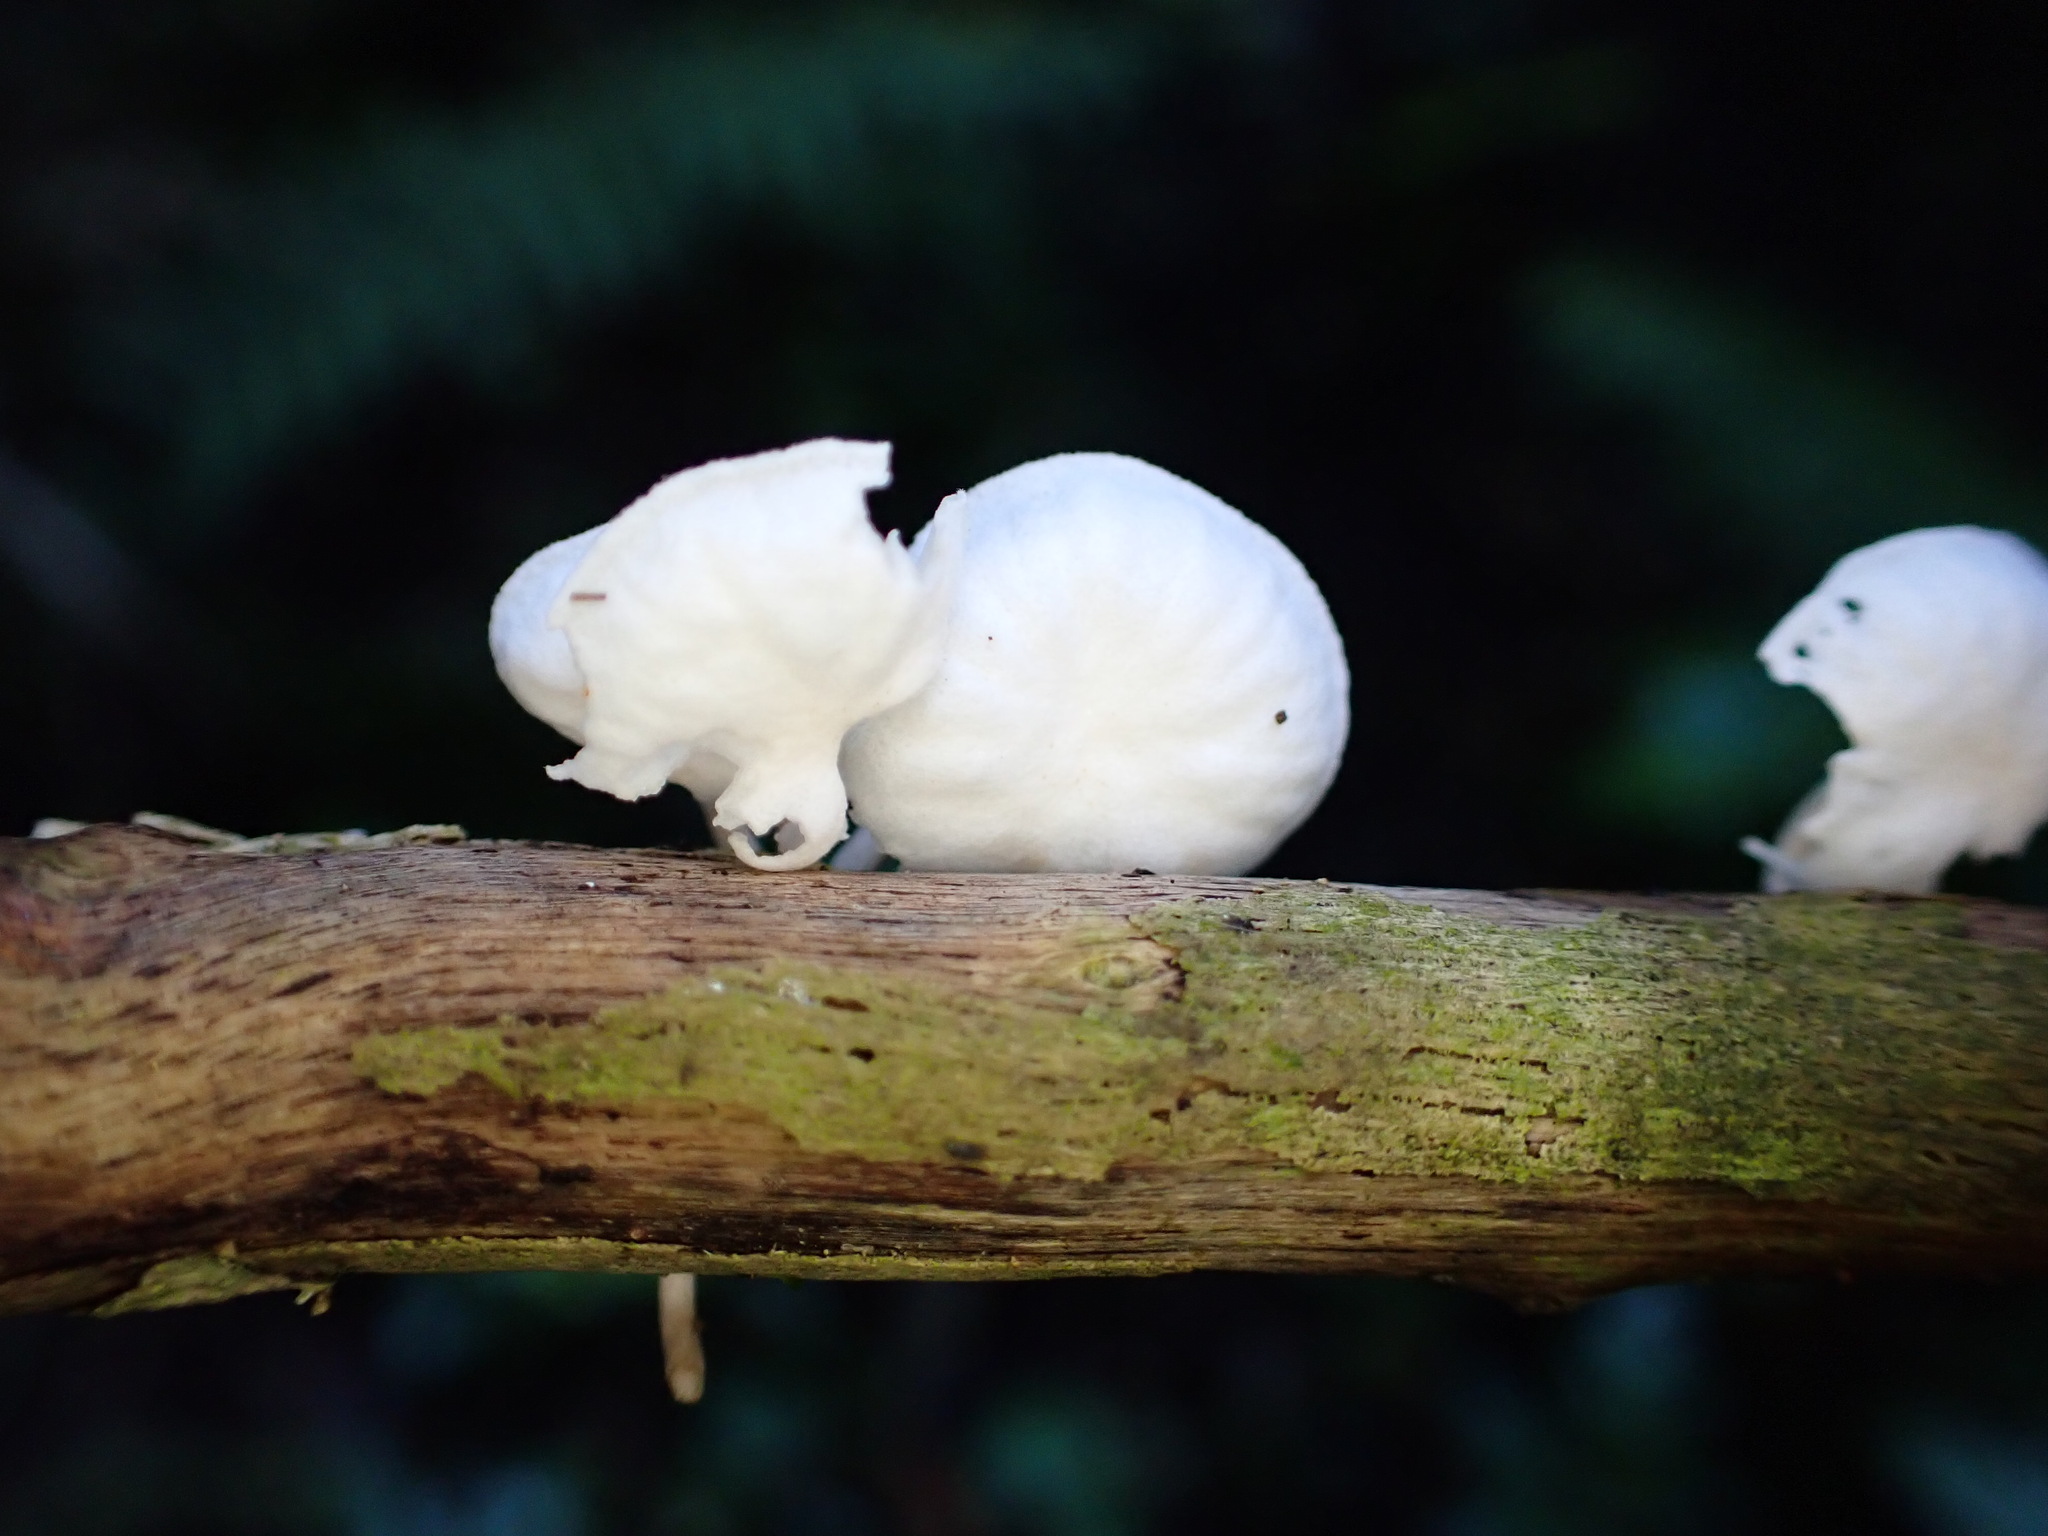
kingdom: Fungi
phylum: Basidiomycota
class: Agaricomycetes
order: Agaricales
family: Omphalotaceae
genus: Marasmiellus
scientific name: Marasmiellus candidus
